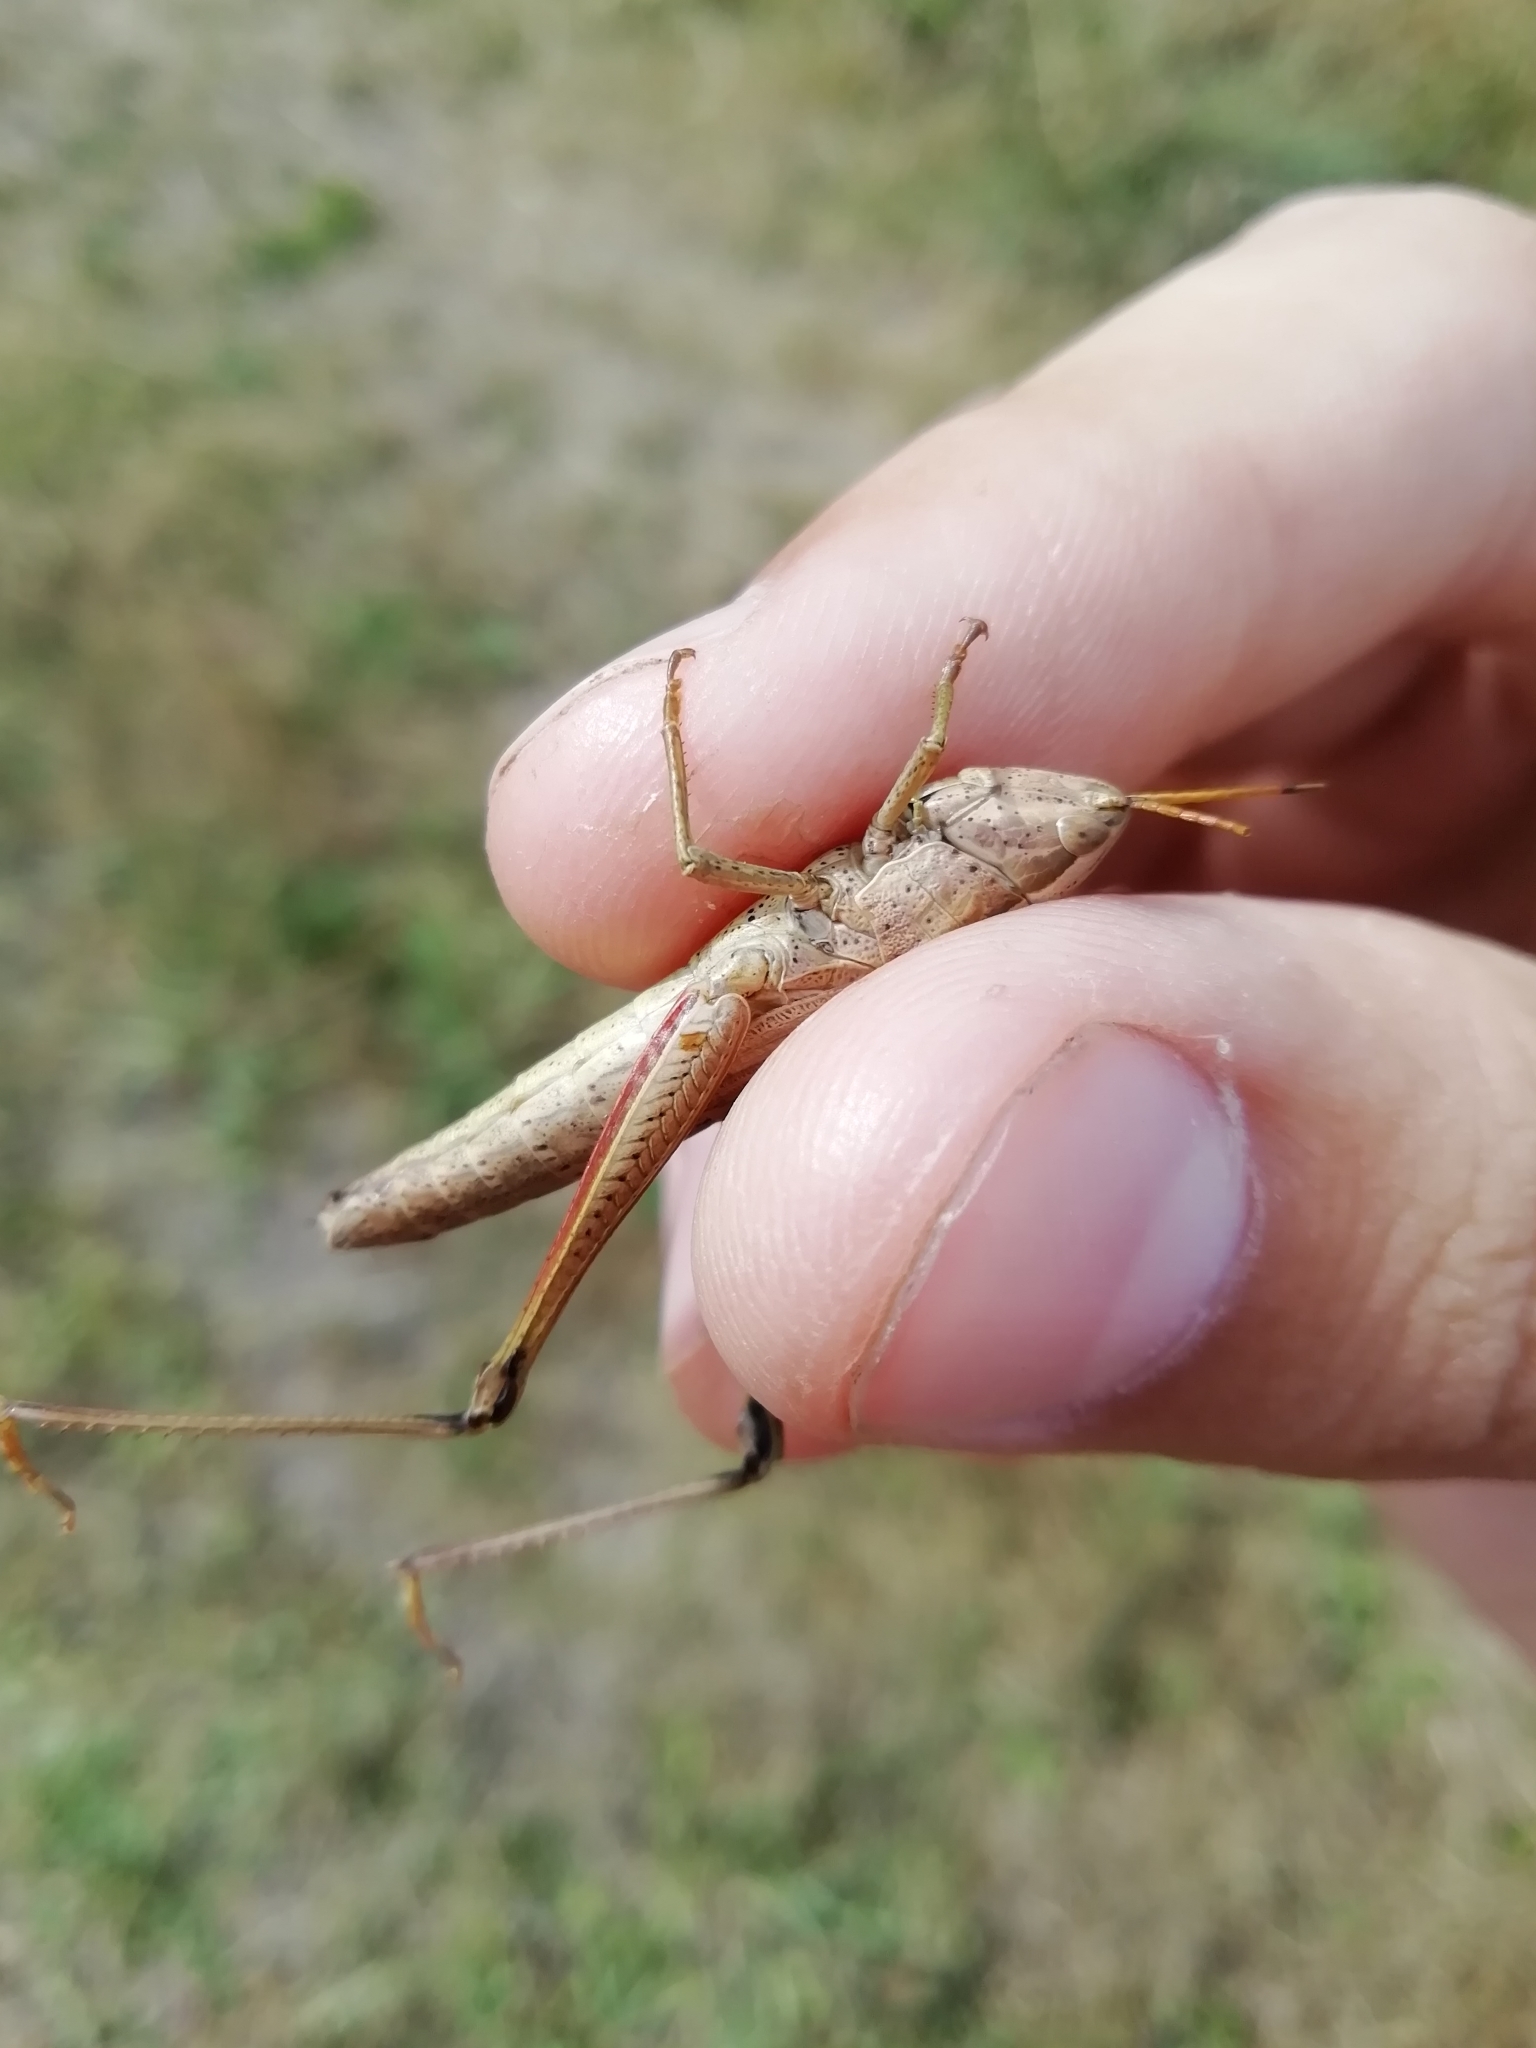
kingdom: Animalia
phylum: Arthropoda
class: Insecta
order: Orthoptera
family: Acrididae
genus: Chrysochraon
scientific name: Chrysochraon dispar
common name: Large gold grasshopper
